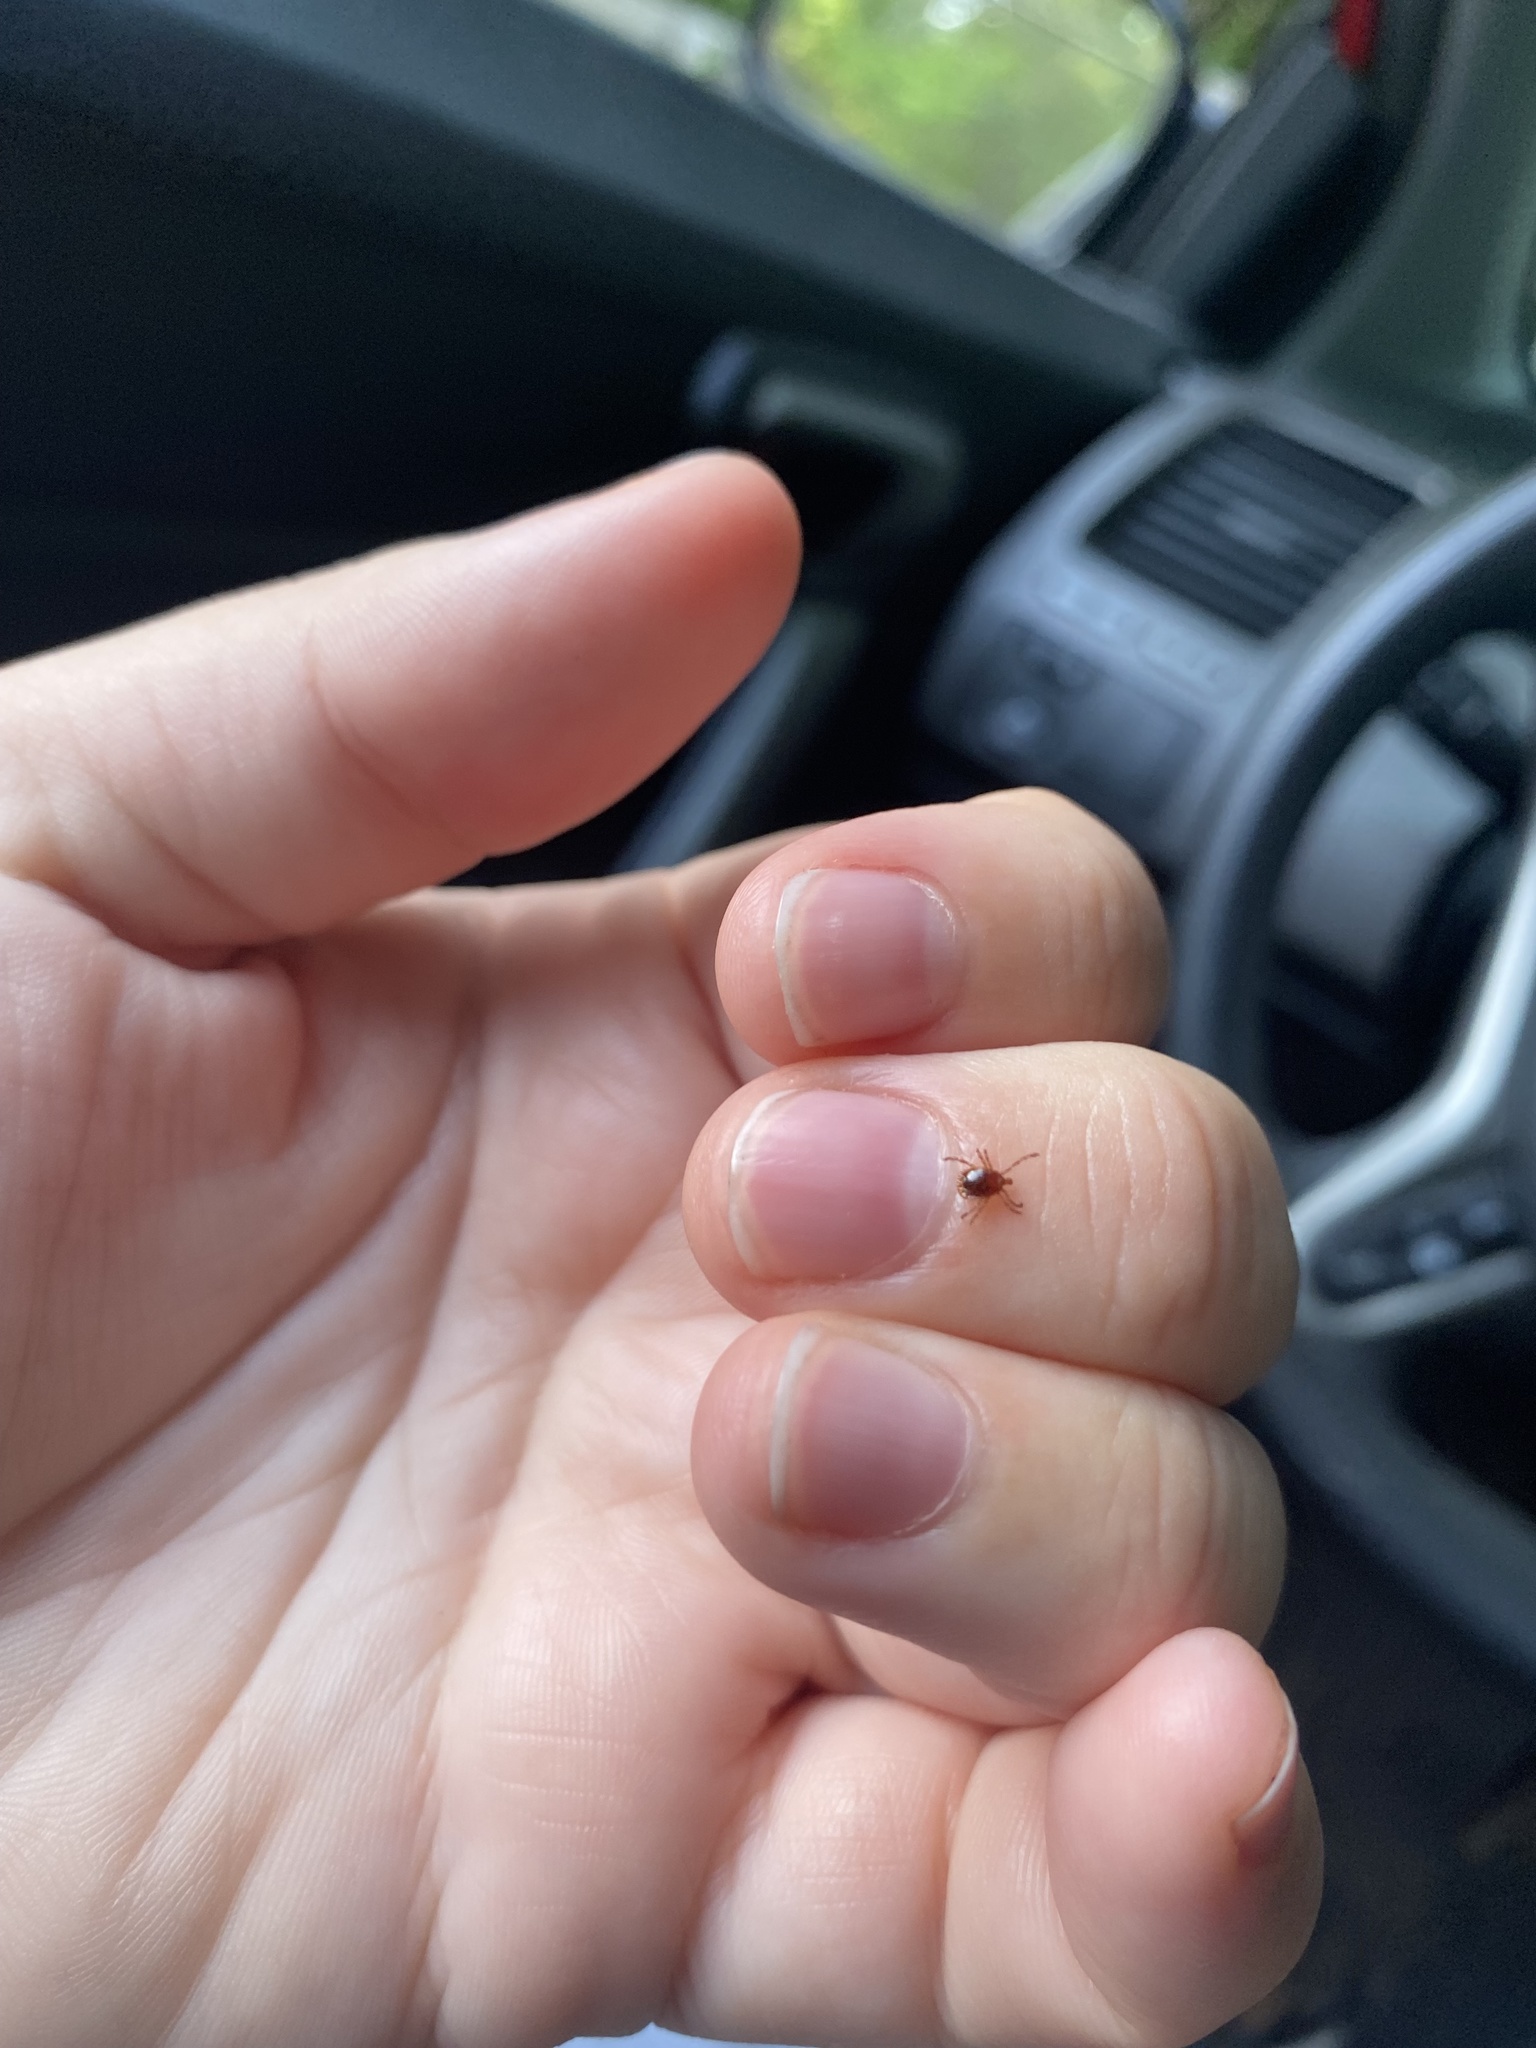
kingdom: Animalia
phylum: Arthropoda
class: Arachnida
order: Ixodida
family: Ixodidae
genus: Amblyomma
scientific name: Amblyomma americanum
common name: Lone star tick
